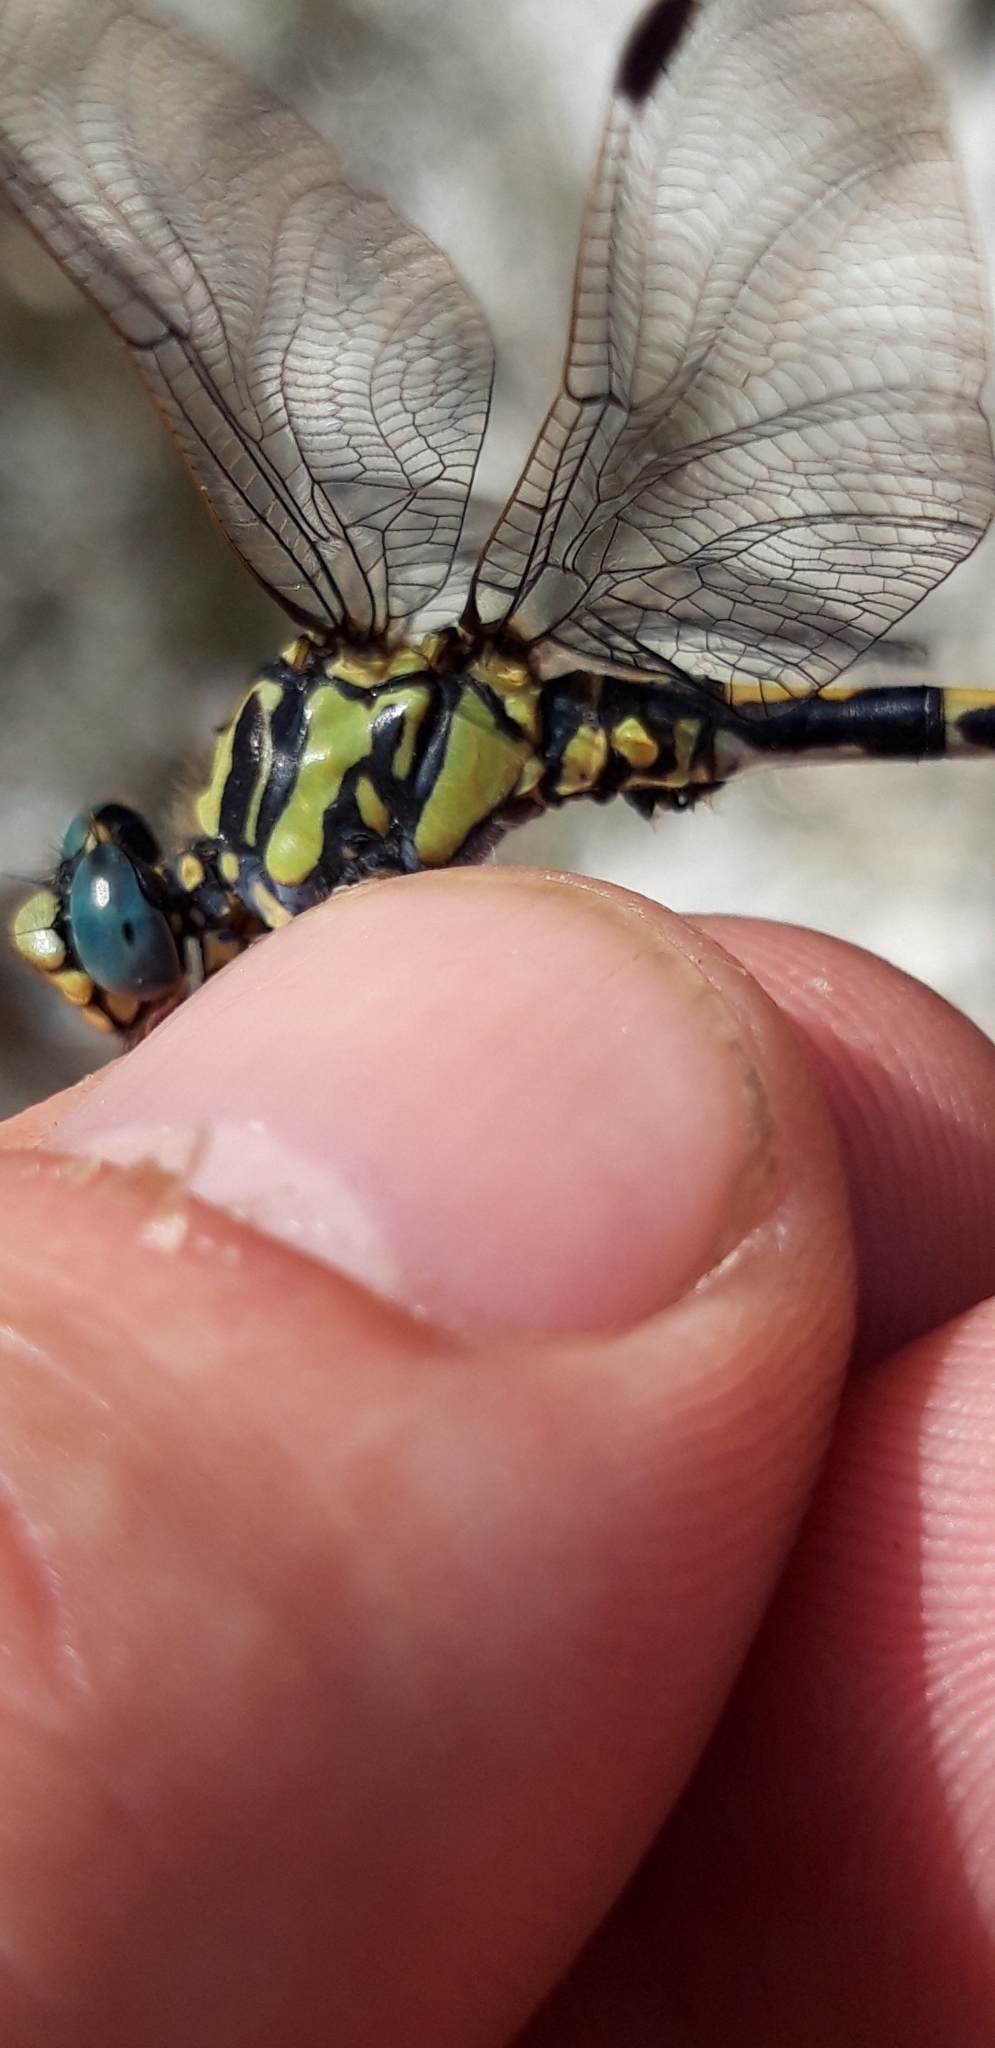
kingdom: Animalia
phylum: Arthropoda
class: Insecta
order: Odonata
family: Gomphidae
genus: Onychogomphus
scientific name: Onychogomphus uncatus
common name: Large pincertail
